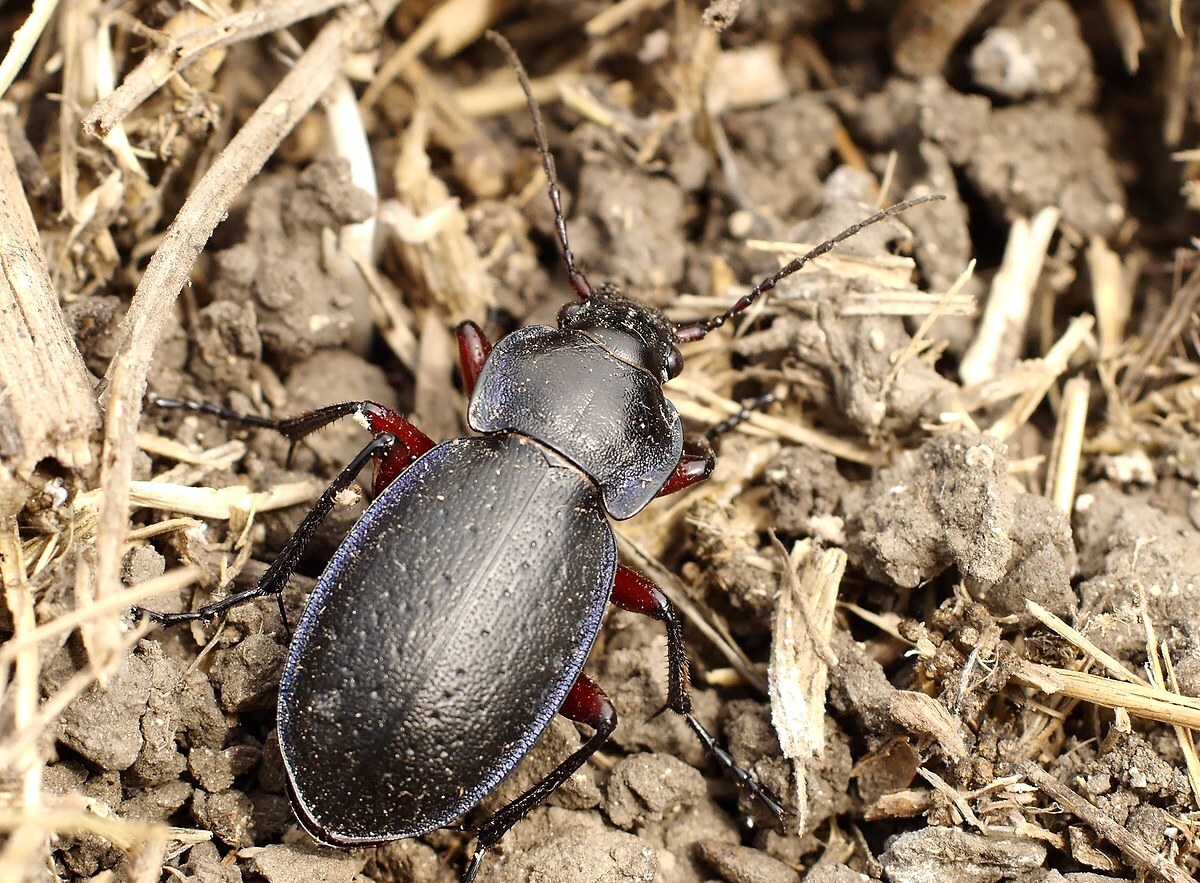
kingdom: Animalia
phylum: Arthropoda
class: Insecta
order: Coleoptera
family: Carabidae
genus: Carabus
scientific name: Carabus besseri
